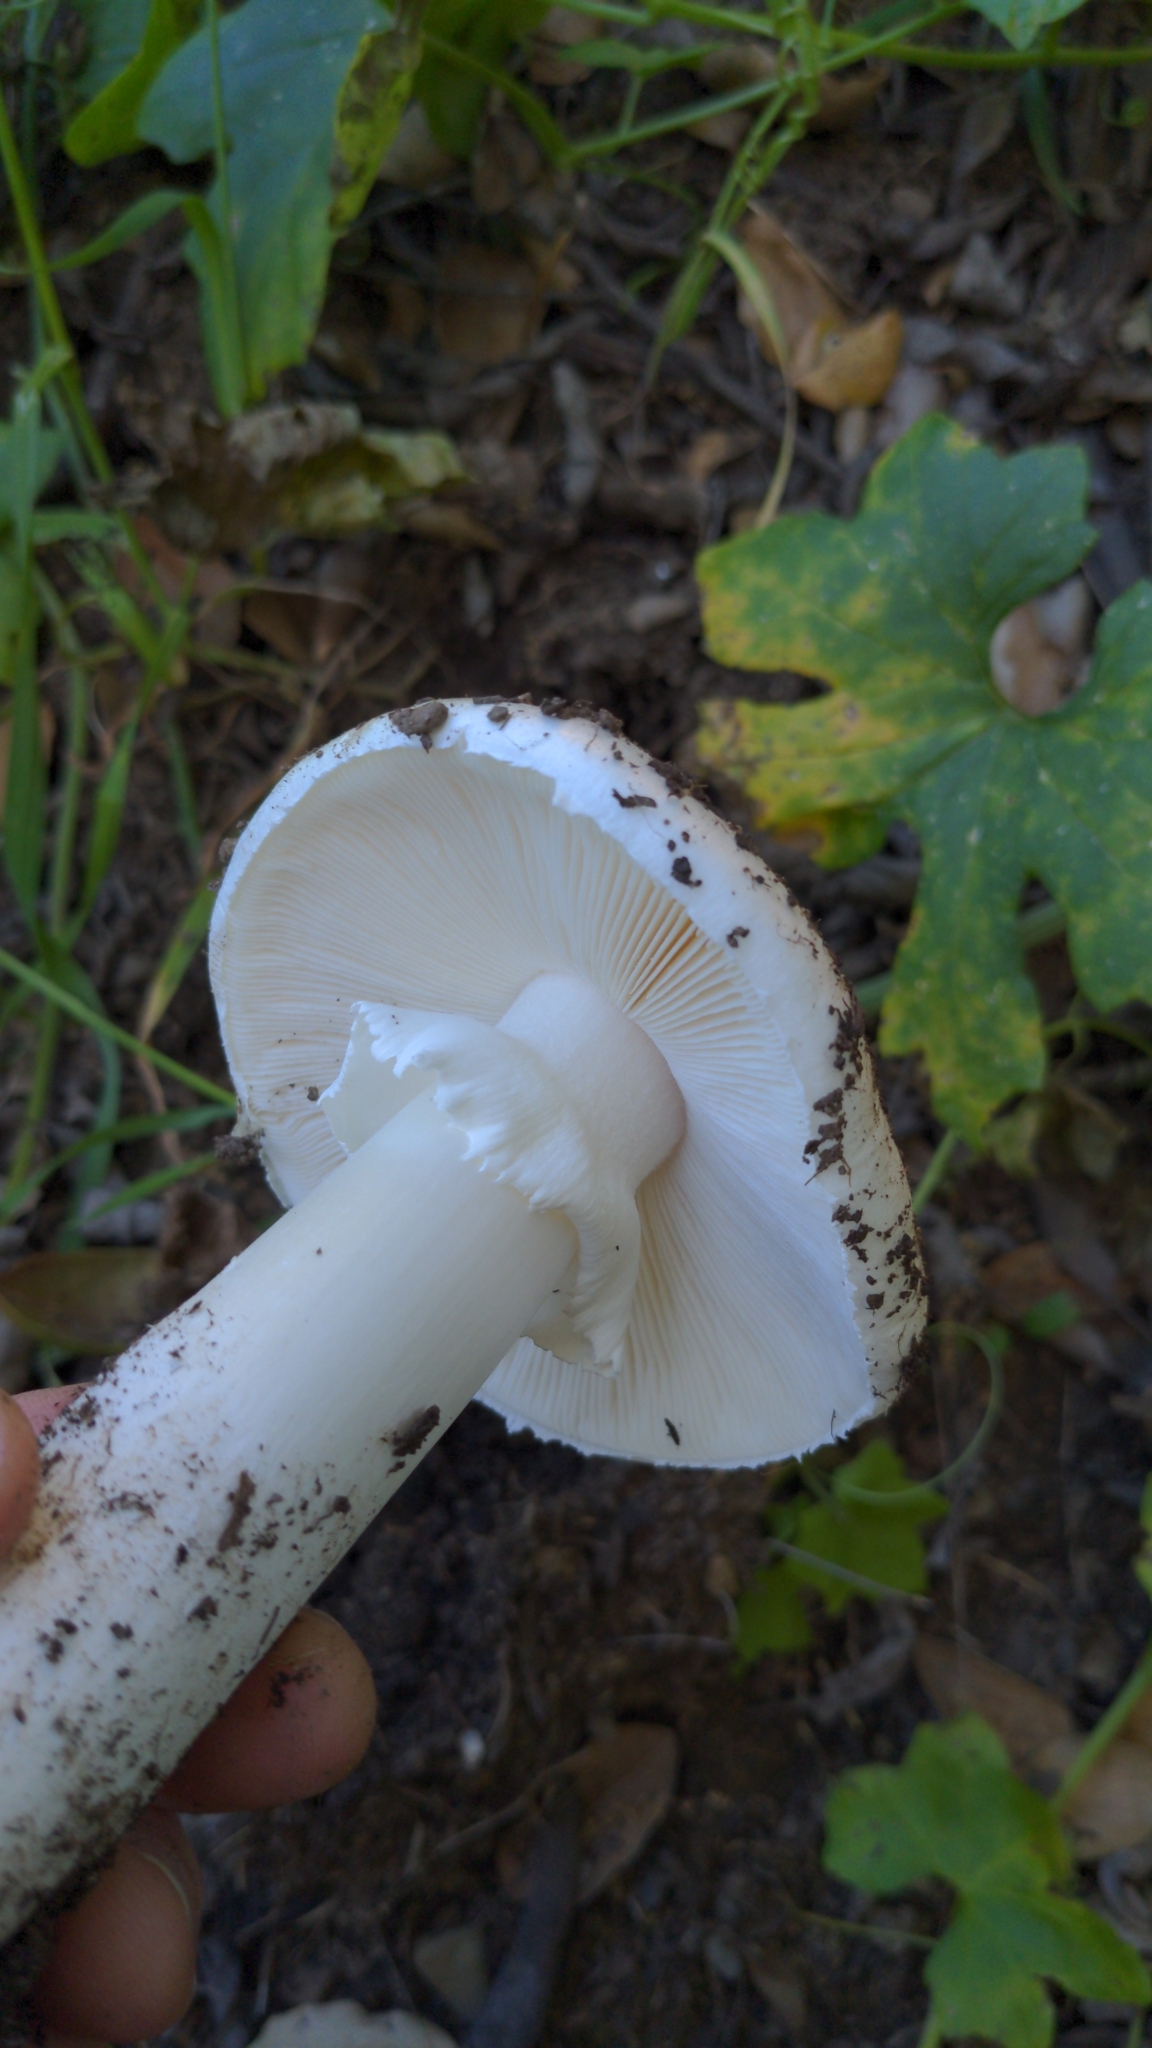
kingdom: Fungi
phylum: Basidiomycota
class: Agaricomycetes
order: Agaricales
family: Amanitaceae
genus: Amanita
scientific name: Amanita ocreata
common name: Western destroying angel
